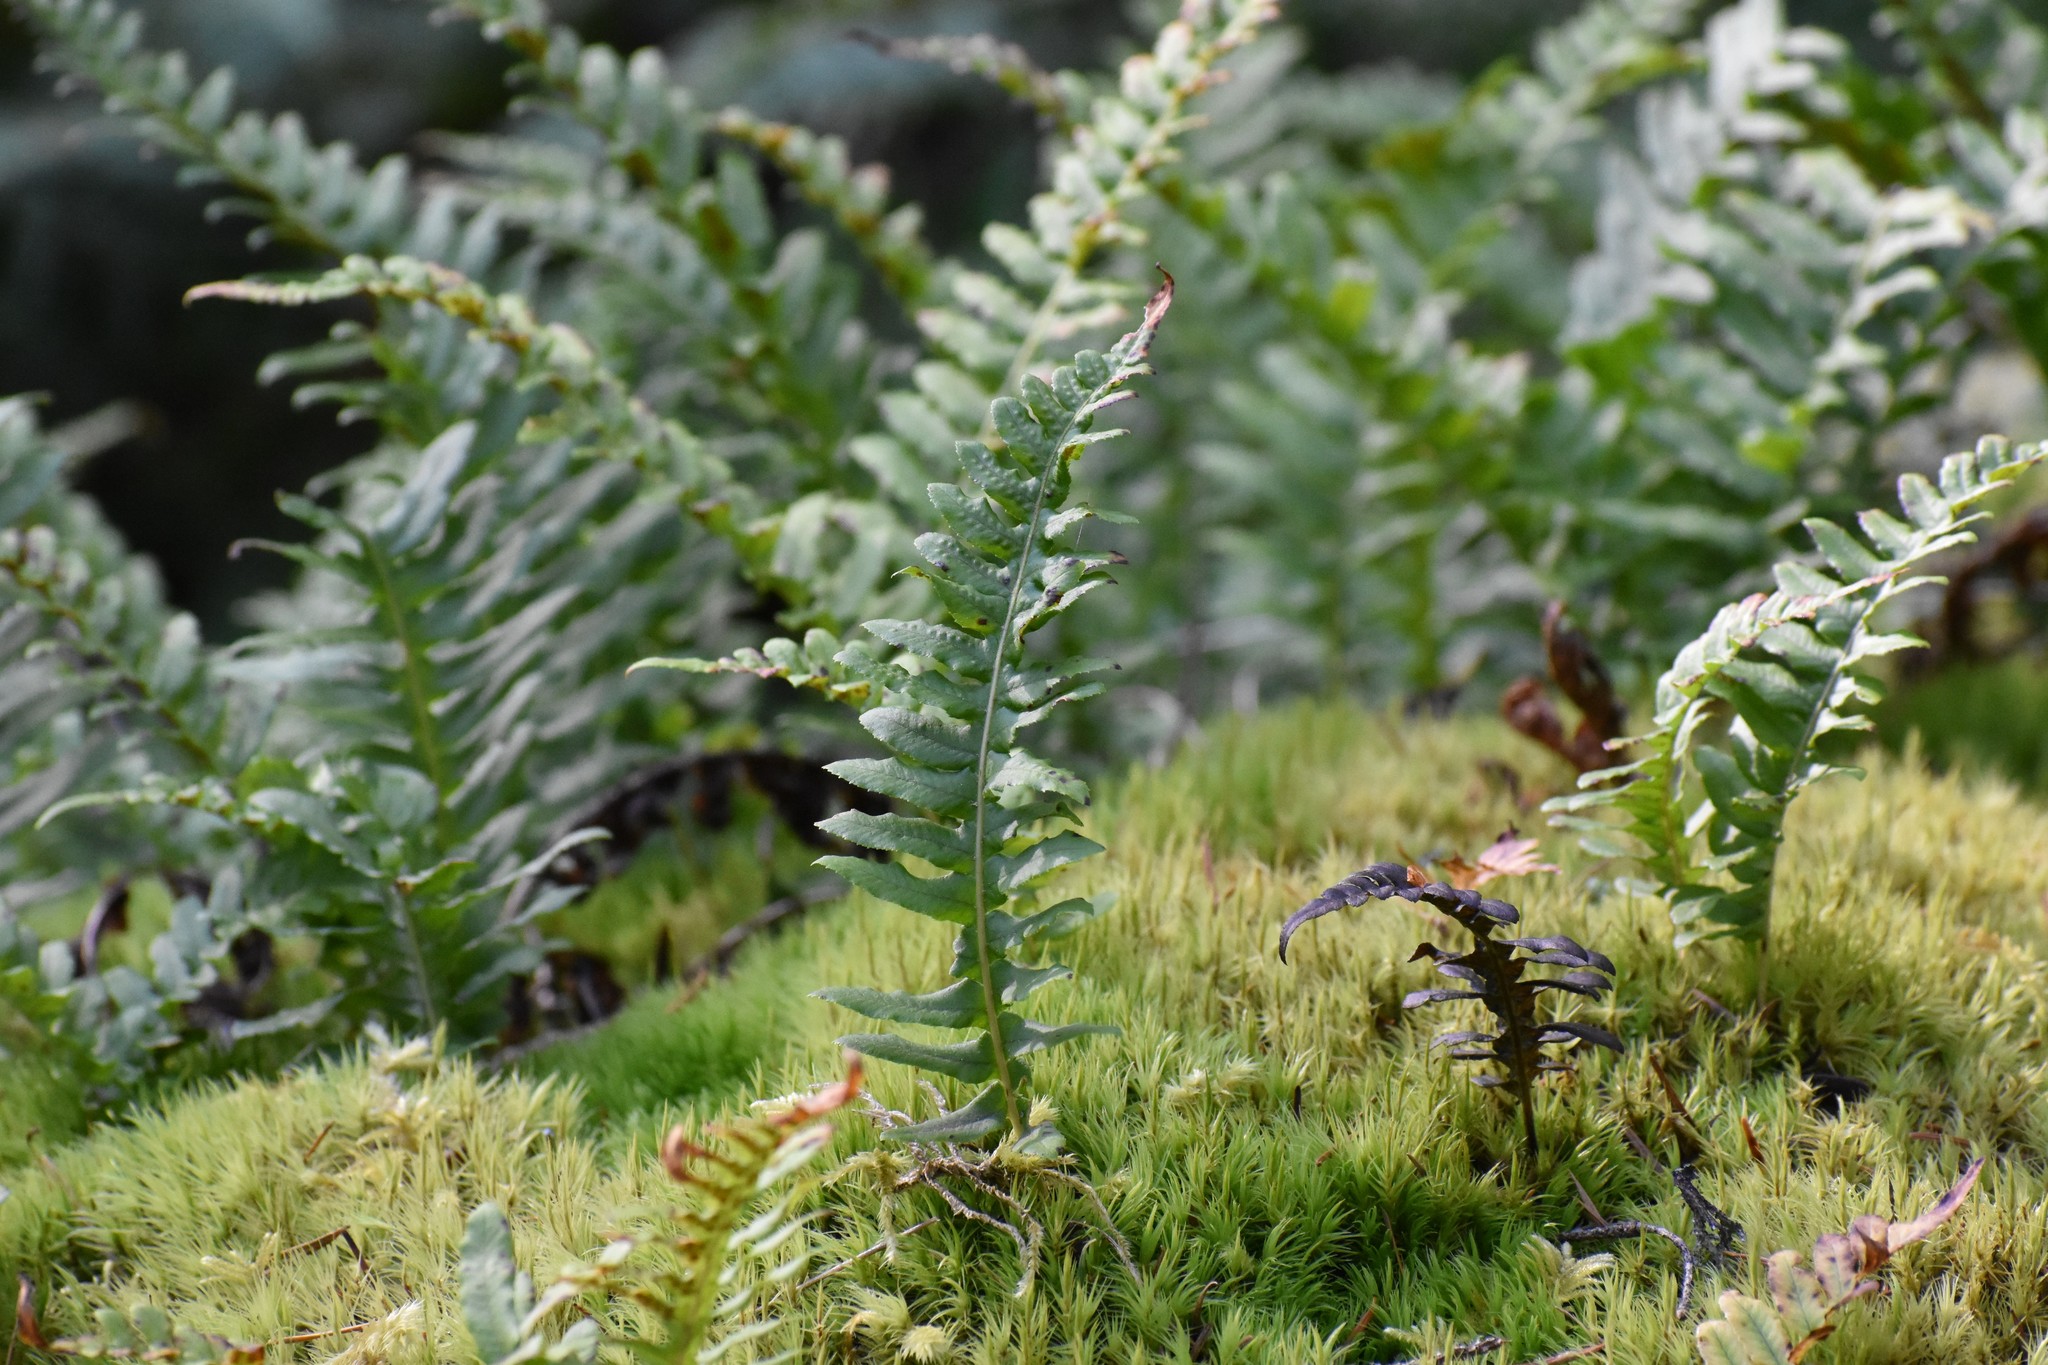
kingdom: Plantae
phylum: Tracheophyta
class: Polypodiopsida
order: Polypodiales
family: Polypodiaceae
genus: Polypodium
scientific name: Polypodium glycyrrhiza
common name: Licorice fern
